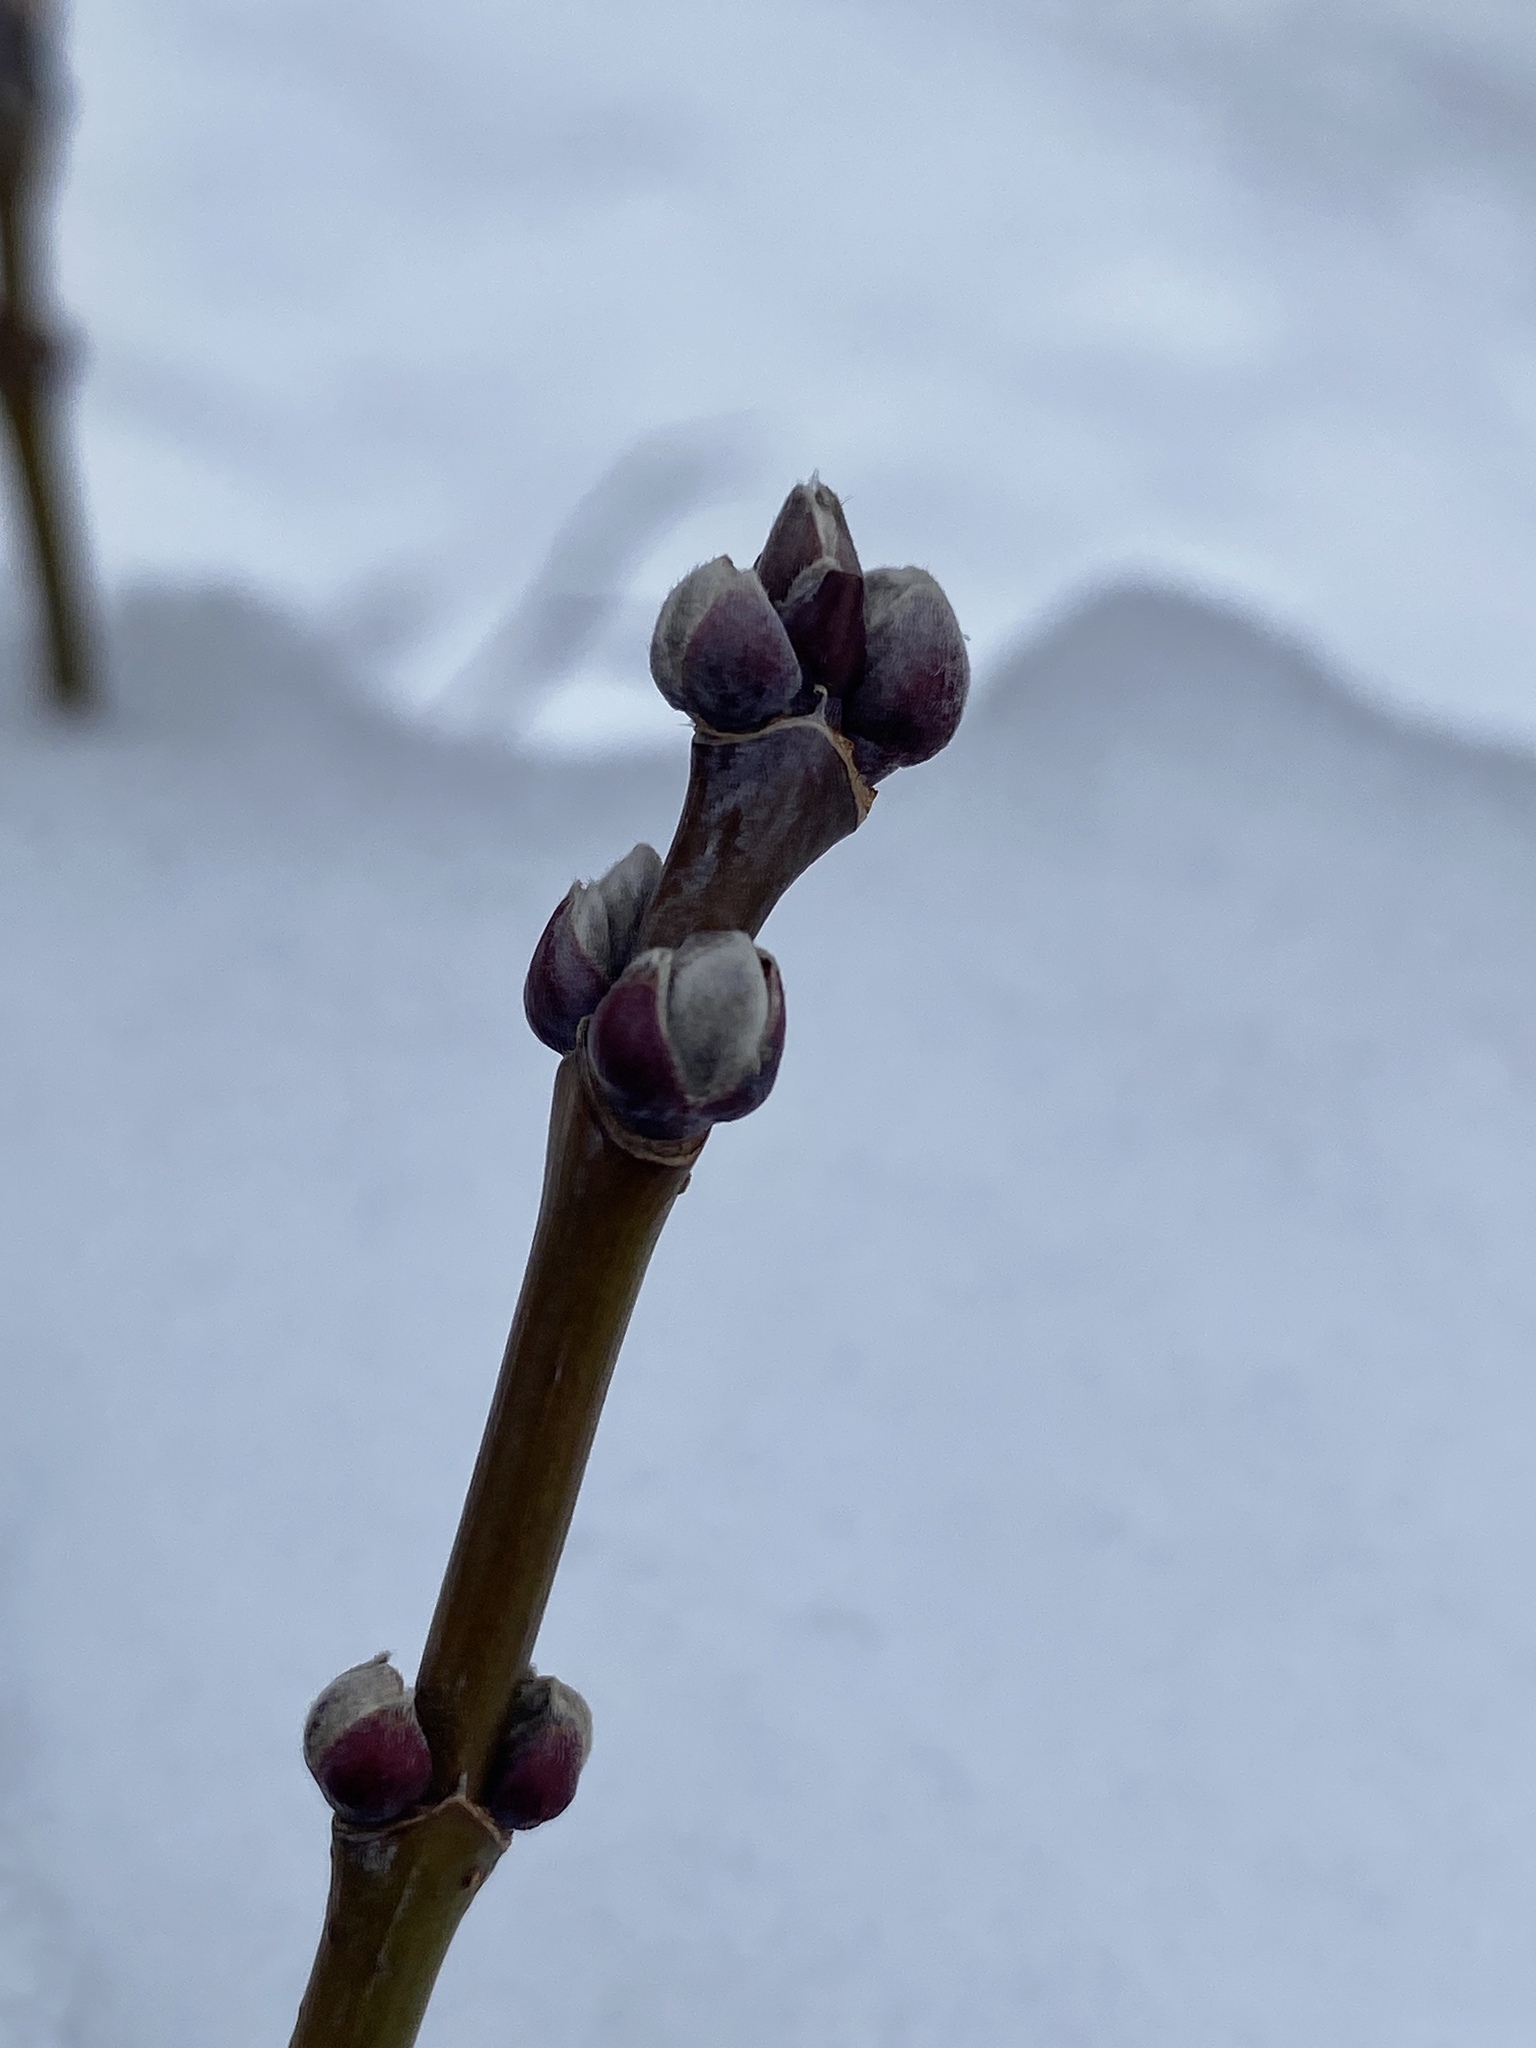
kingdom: Plantae
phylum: Tracheophyta
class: Magnoliopsida
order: Sapindales
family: Sapindaceae
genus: Acer
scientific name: Acer negundo
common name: Ashleaf maple
